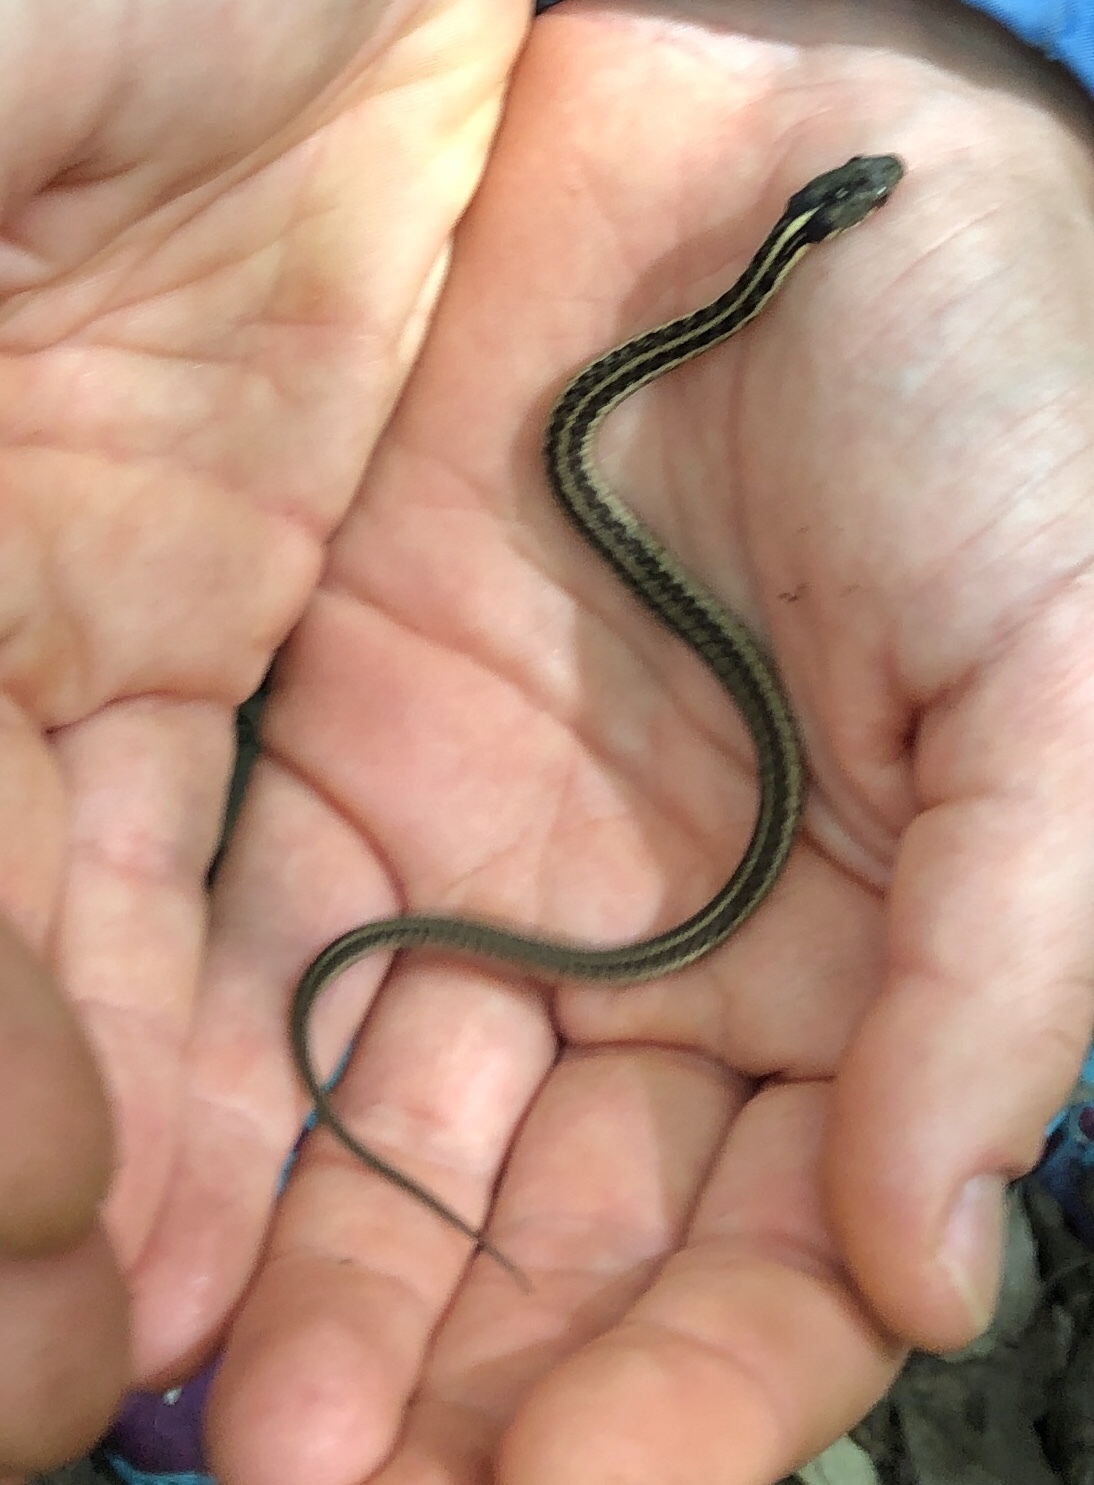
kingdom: Animalia
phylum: Chordata
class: Squamata
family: Colubridae
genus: Thamnophis
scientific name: Thamnophis sirtalis
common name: Common garter snake
